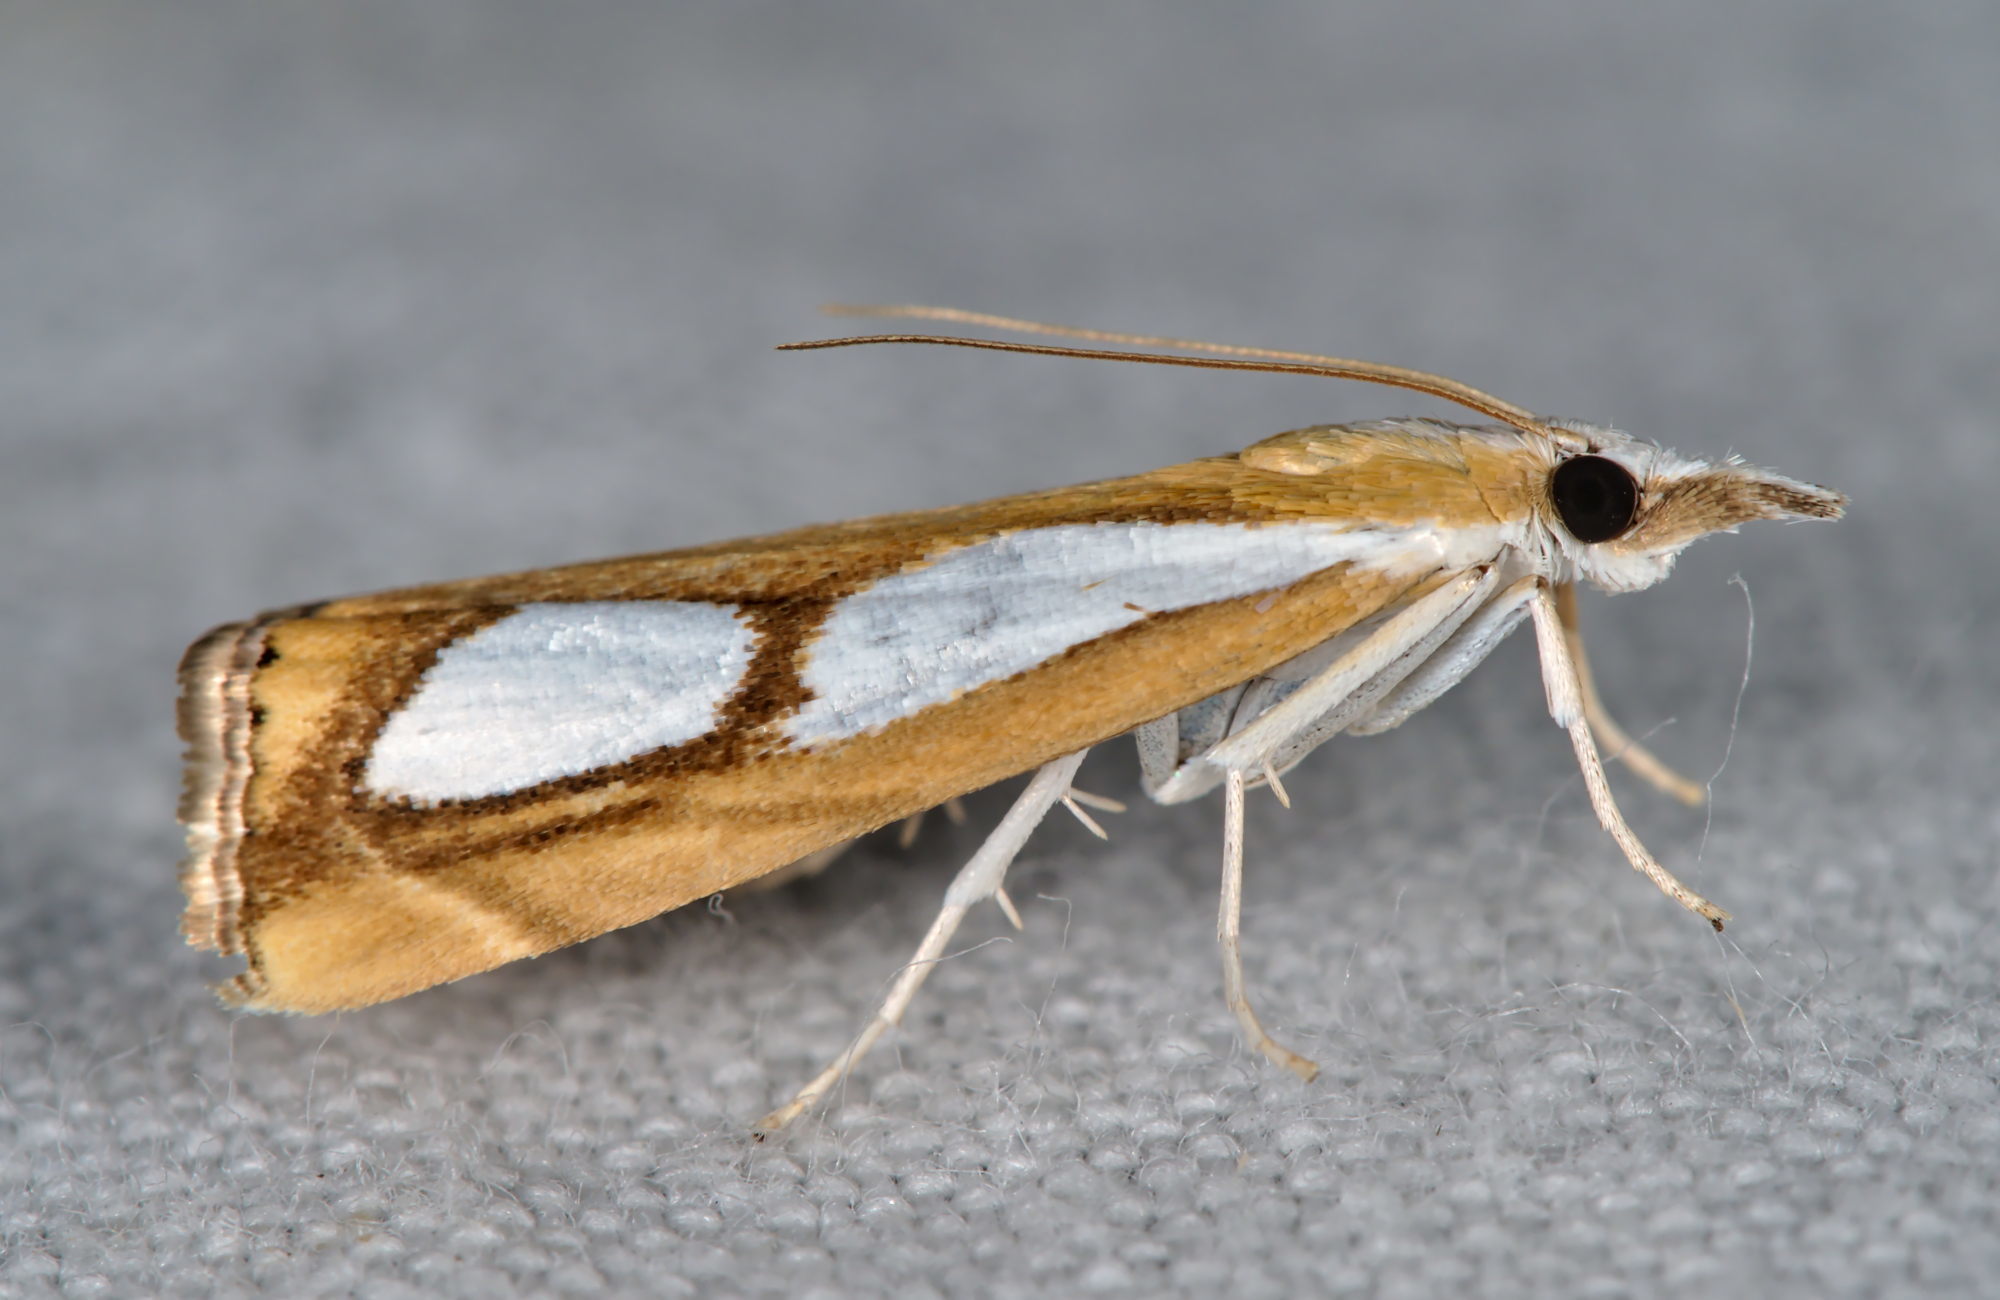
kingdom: Animalia
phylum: Arthropoda
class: Insecta
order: Lepidoptera
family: Crambidae
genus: Catoptria
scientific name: Catoptria pinella
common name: Pearl grass-veneer
